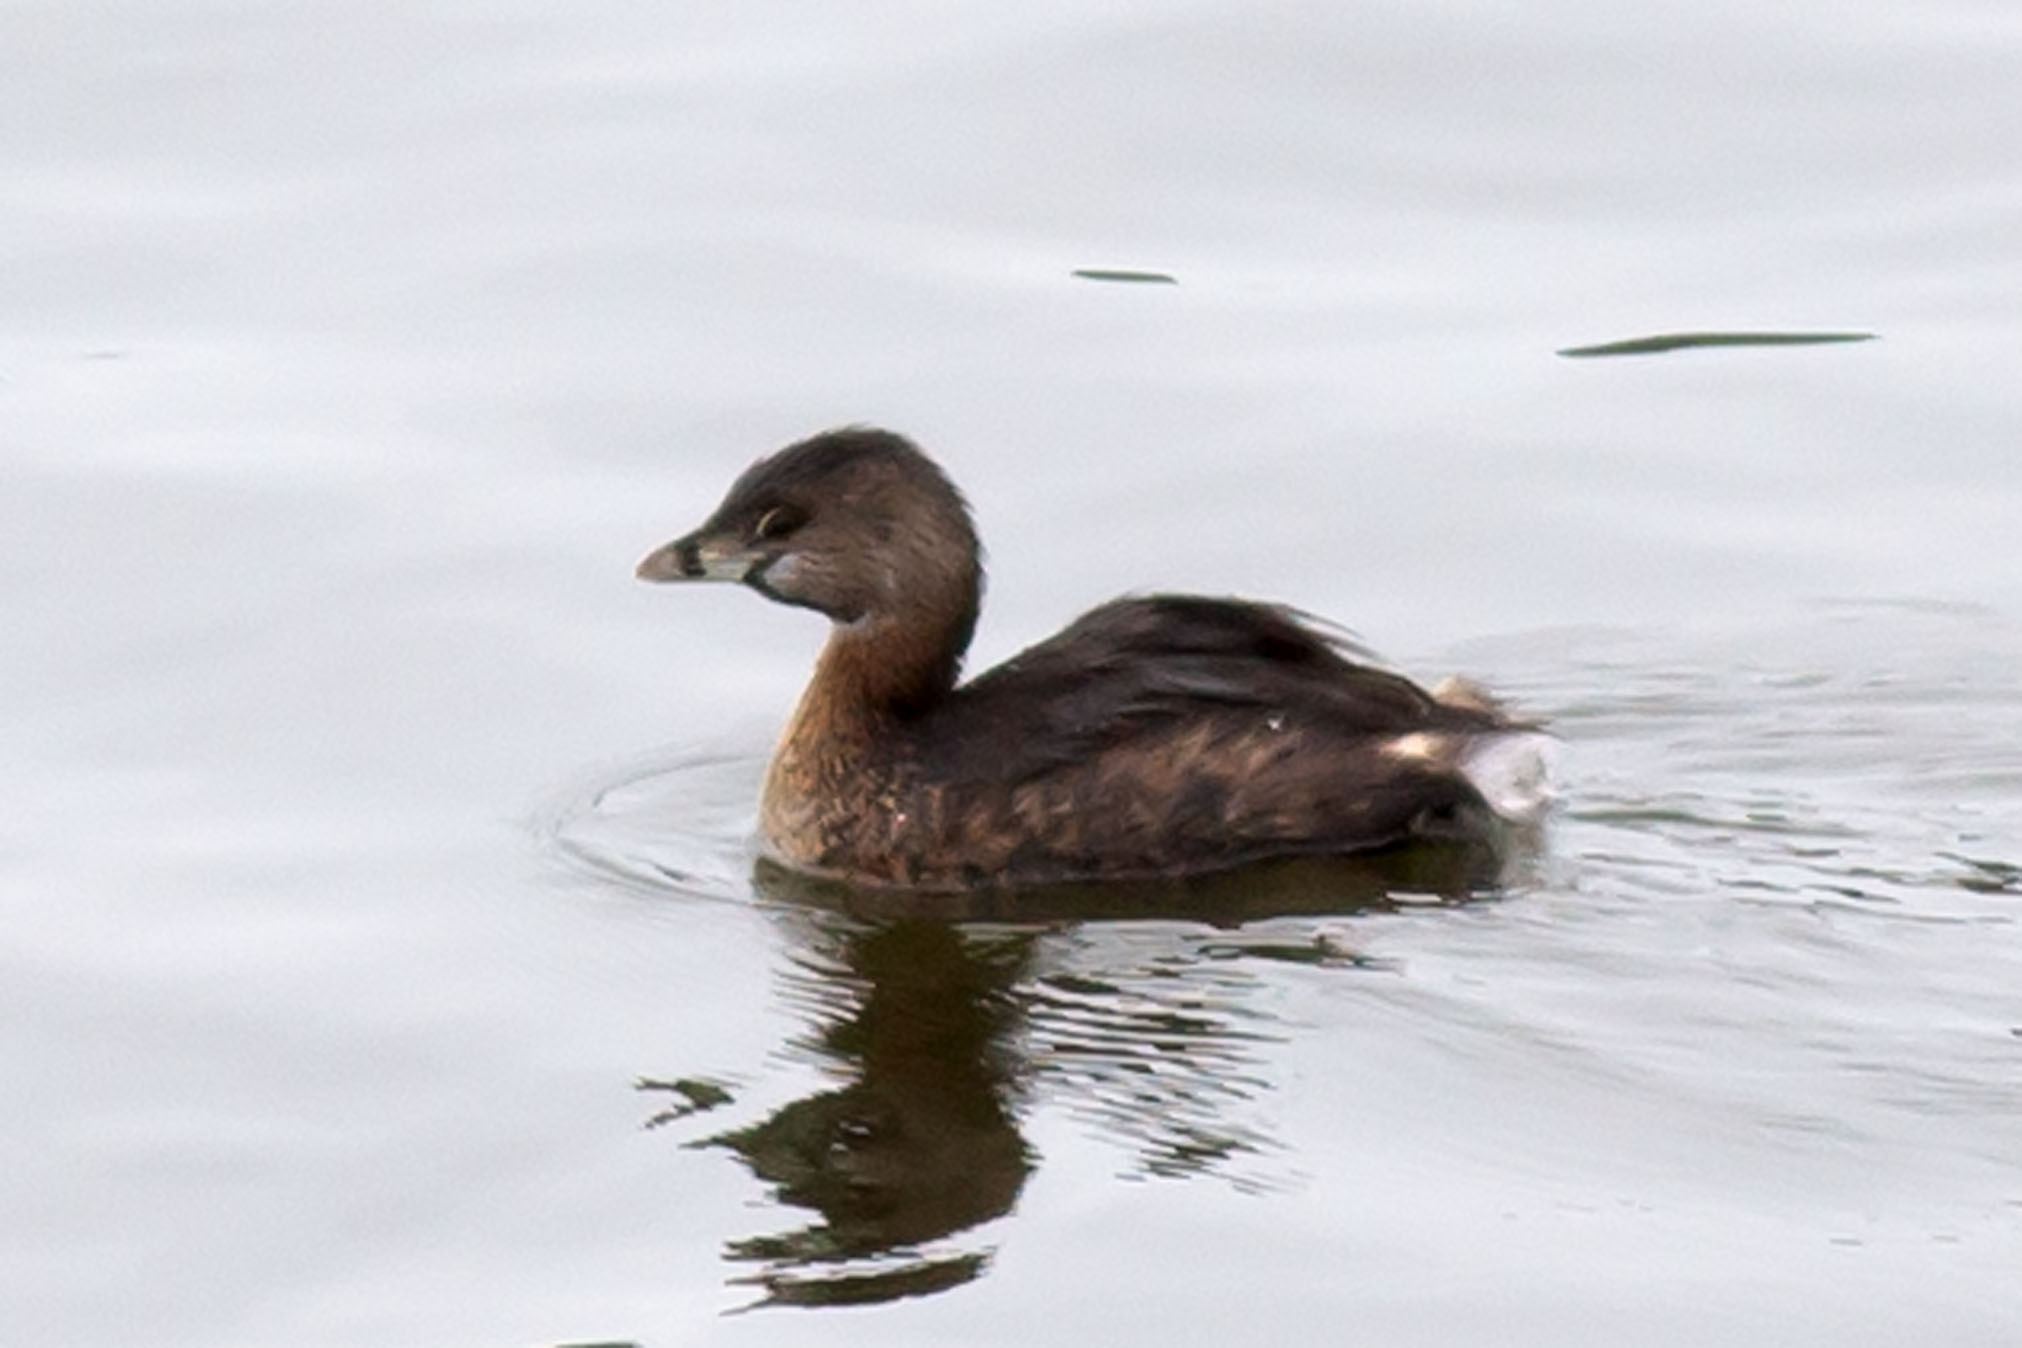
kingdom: Animalia
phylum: Chordata
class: Aves
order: Podicipediformes
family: Podicipedidae
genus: Podilymbus
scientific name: Podilymbus podiceps
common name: Pied-billed grebe
